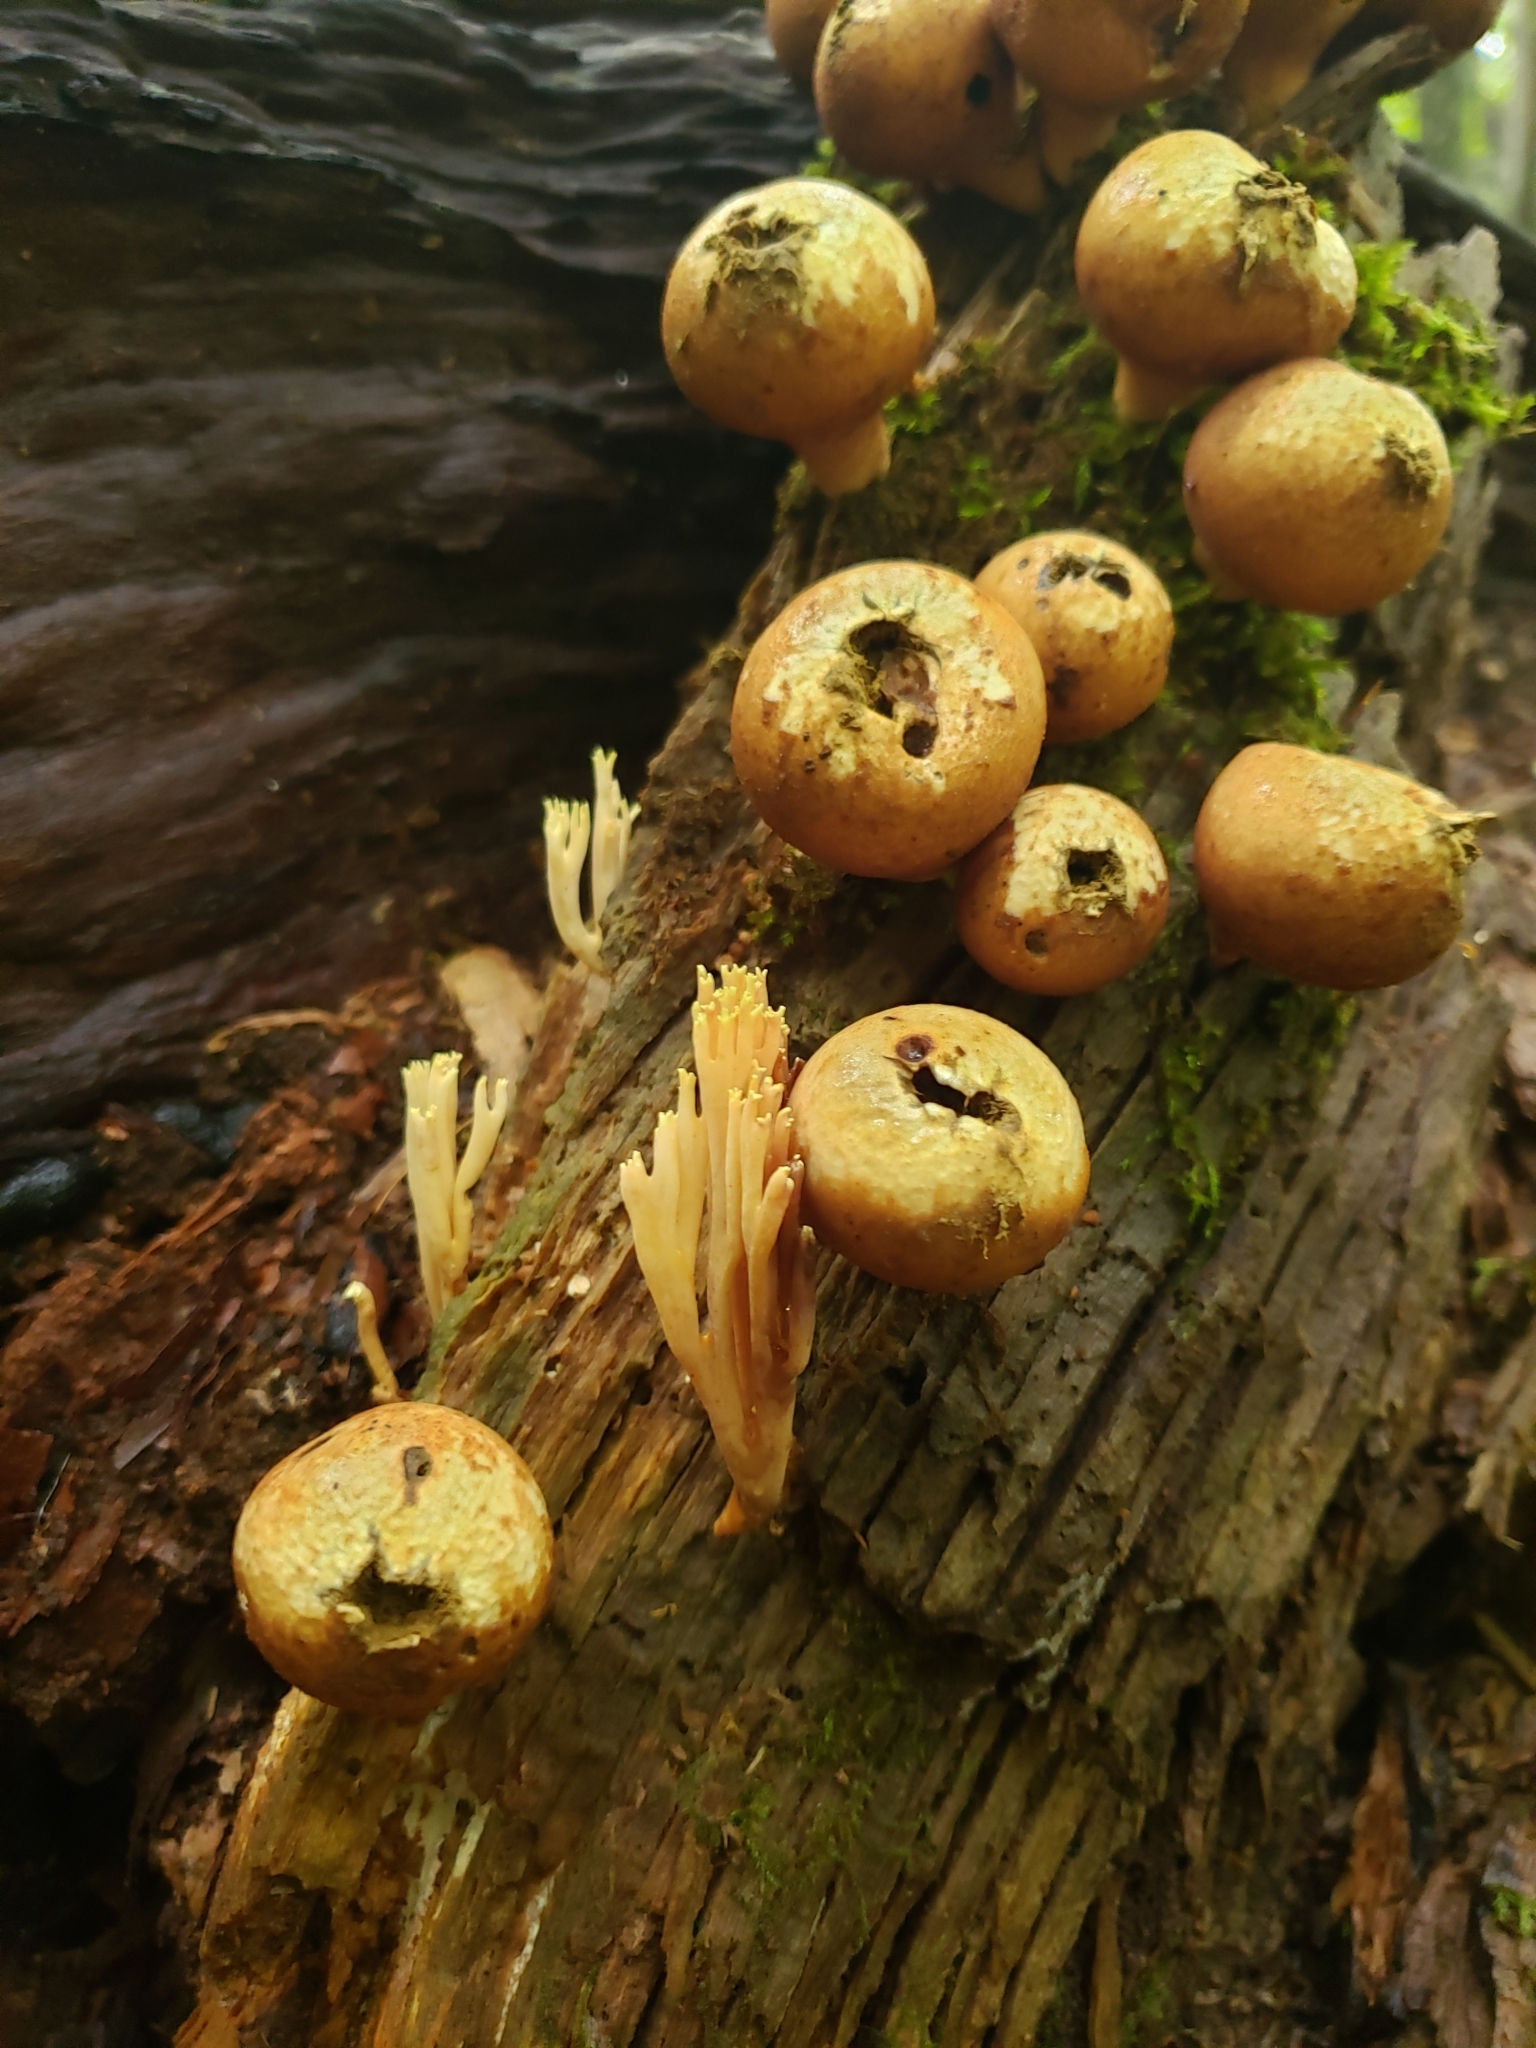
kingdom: Fungi
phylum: Basidiomycota
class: Agaricomycetes
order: Agaricales
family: Lycoperdaceae
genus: Apioperdon
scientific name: Apioperdon pyriforme
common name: Pear-shaped puffball
